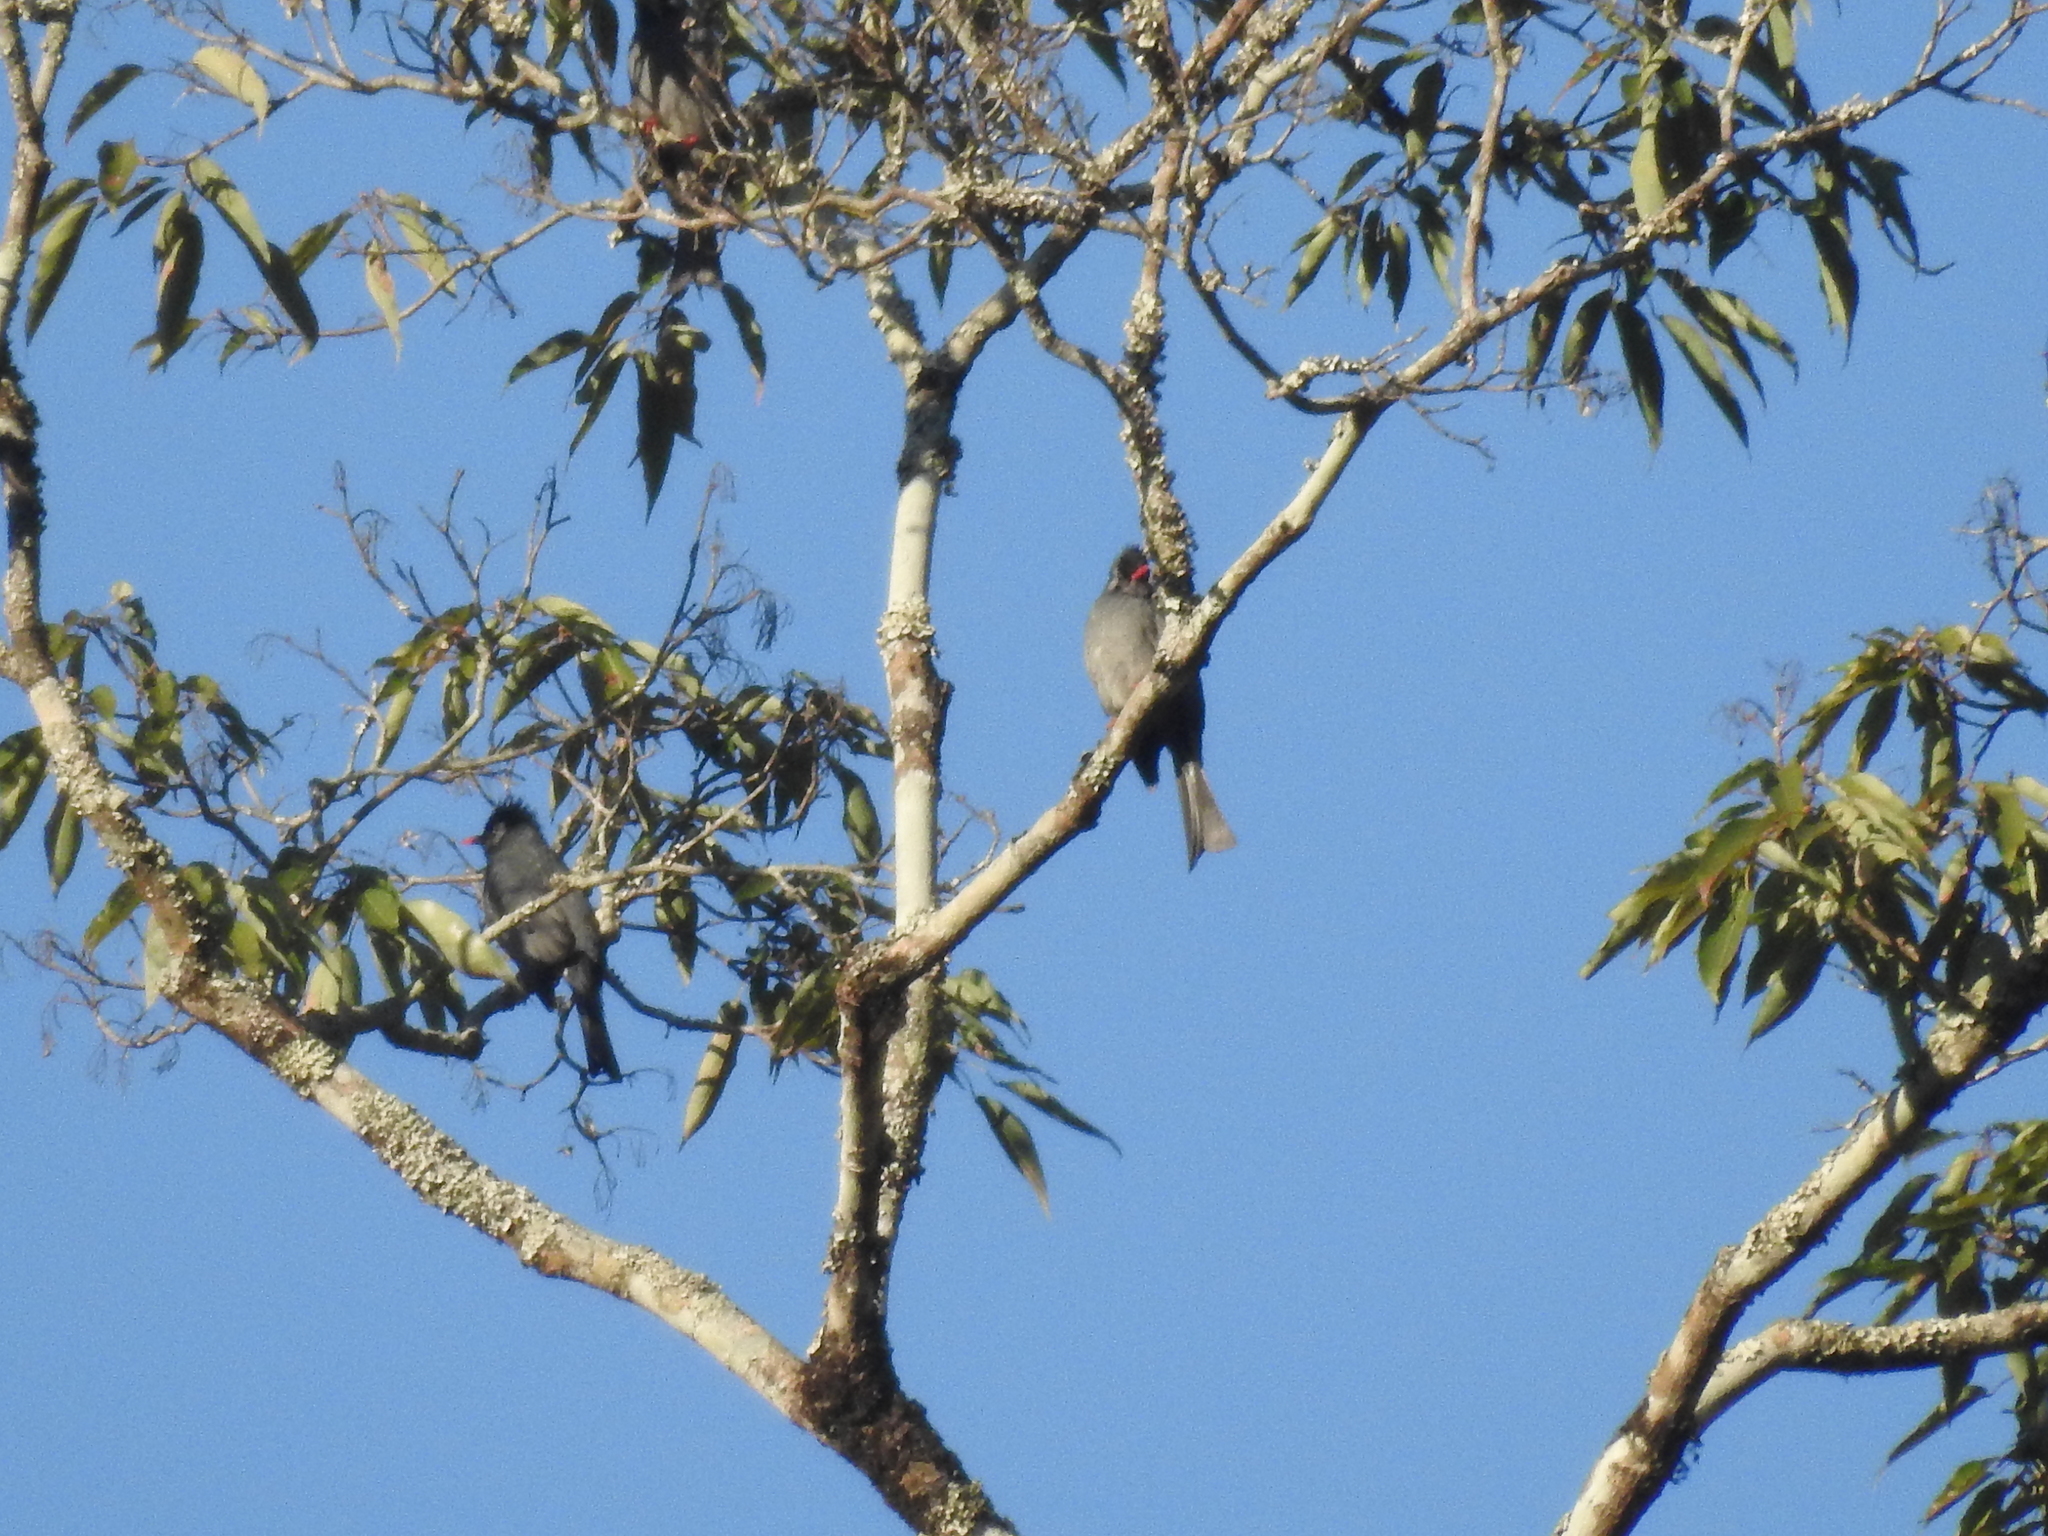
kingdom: Animalia
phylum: Chordata
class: Aves
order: Passeriformes
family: Pycnonotidae
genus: Hypsipetes
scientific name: Hypsipetes leucocephalus
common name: Black bulbul
